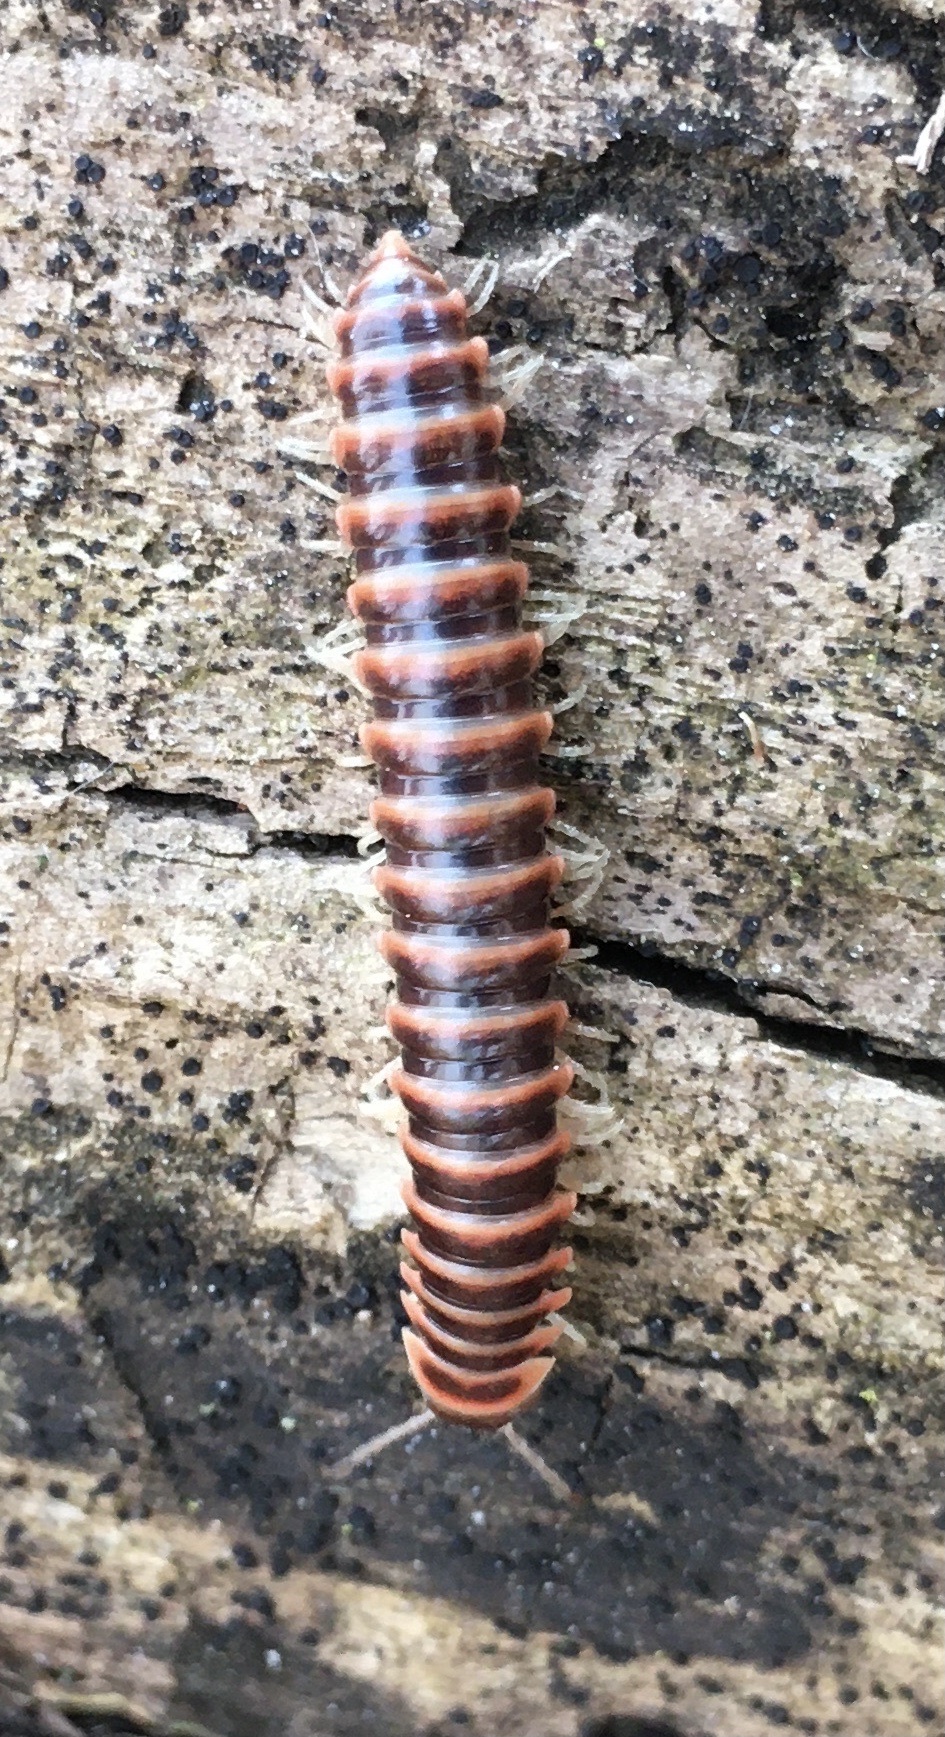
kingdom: Animalia
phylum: Arthropoda
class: Diplopoda
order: Polydesmida
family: Xystodesmidae
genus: Semionellus
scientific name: Semionellus placidus
